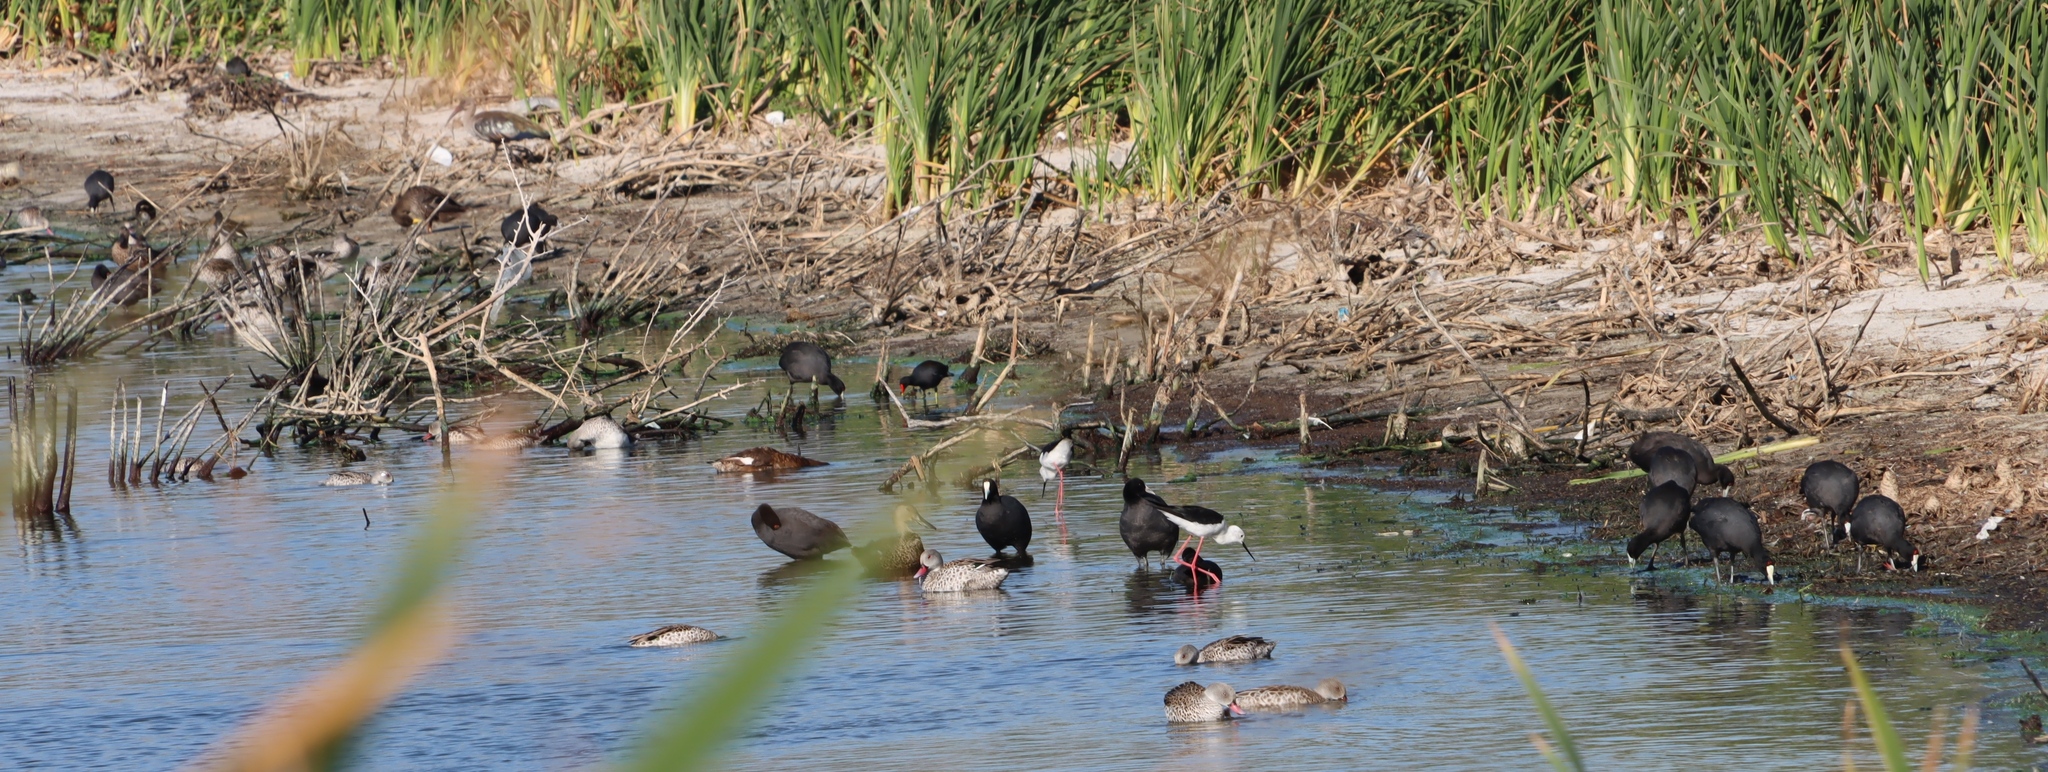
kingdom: Animalia
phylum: Chordata
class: Aves
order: Gruiformes
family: Rallidae
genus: Fulica
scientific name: Fulica cristata
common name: Red-knobbed coot
